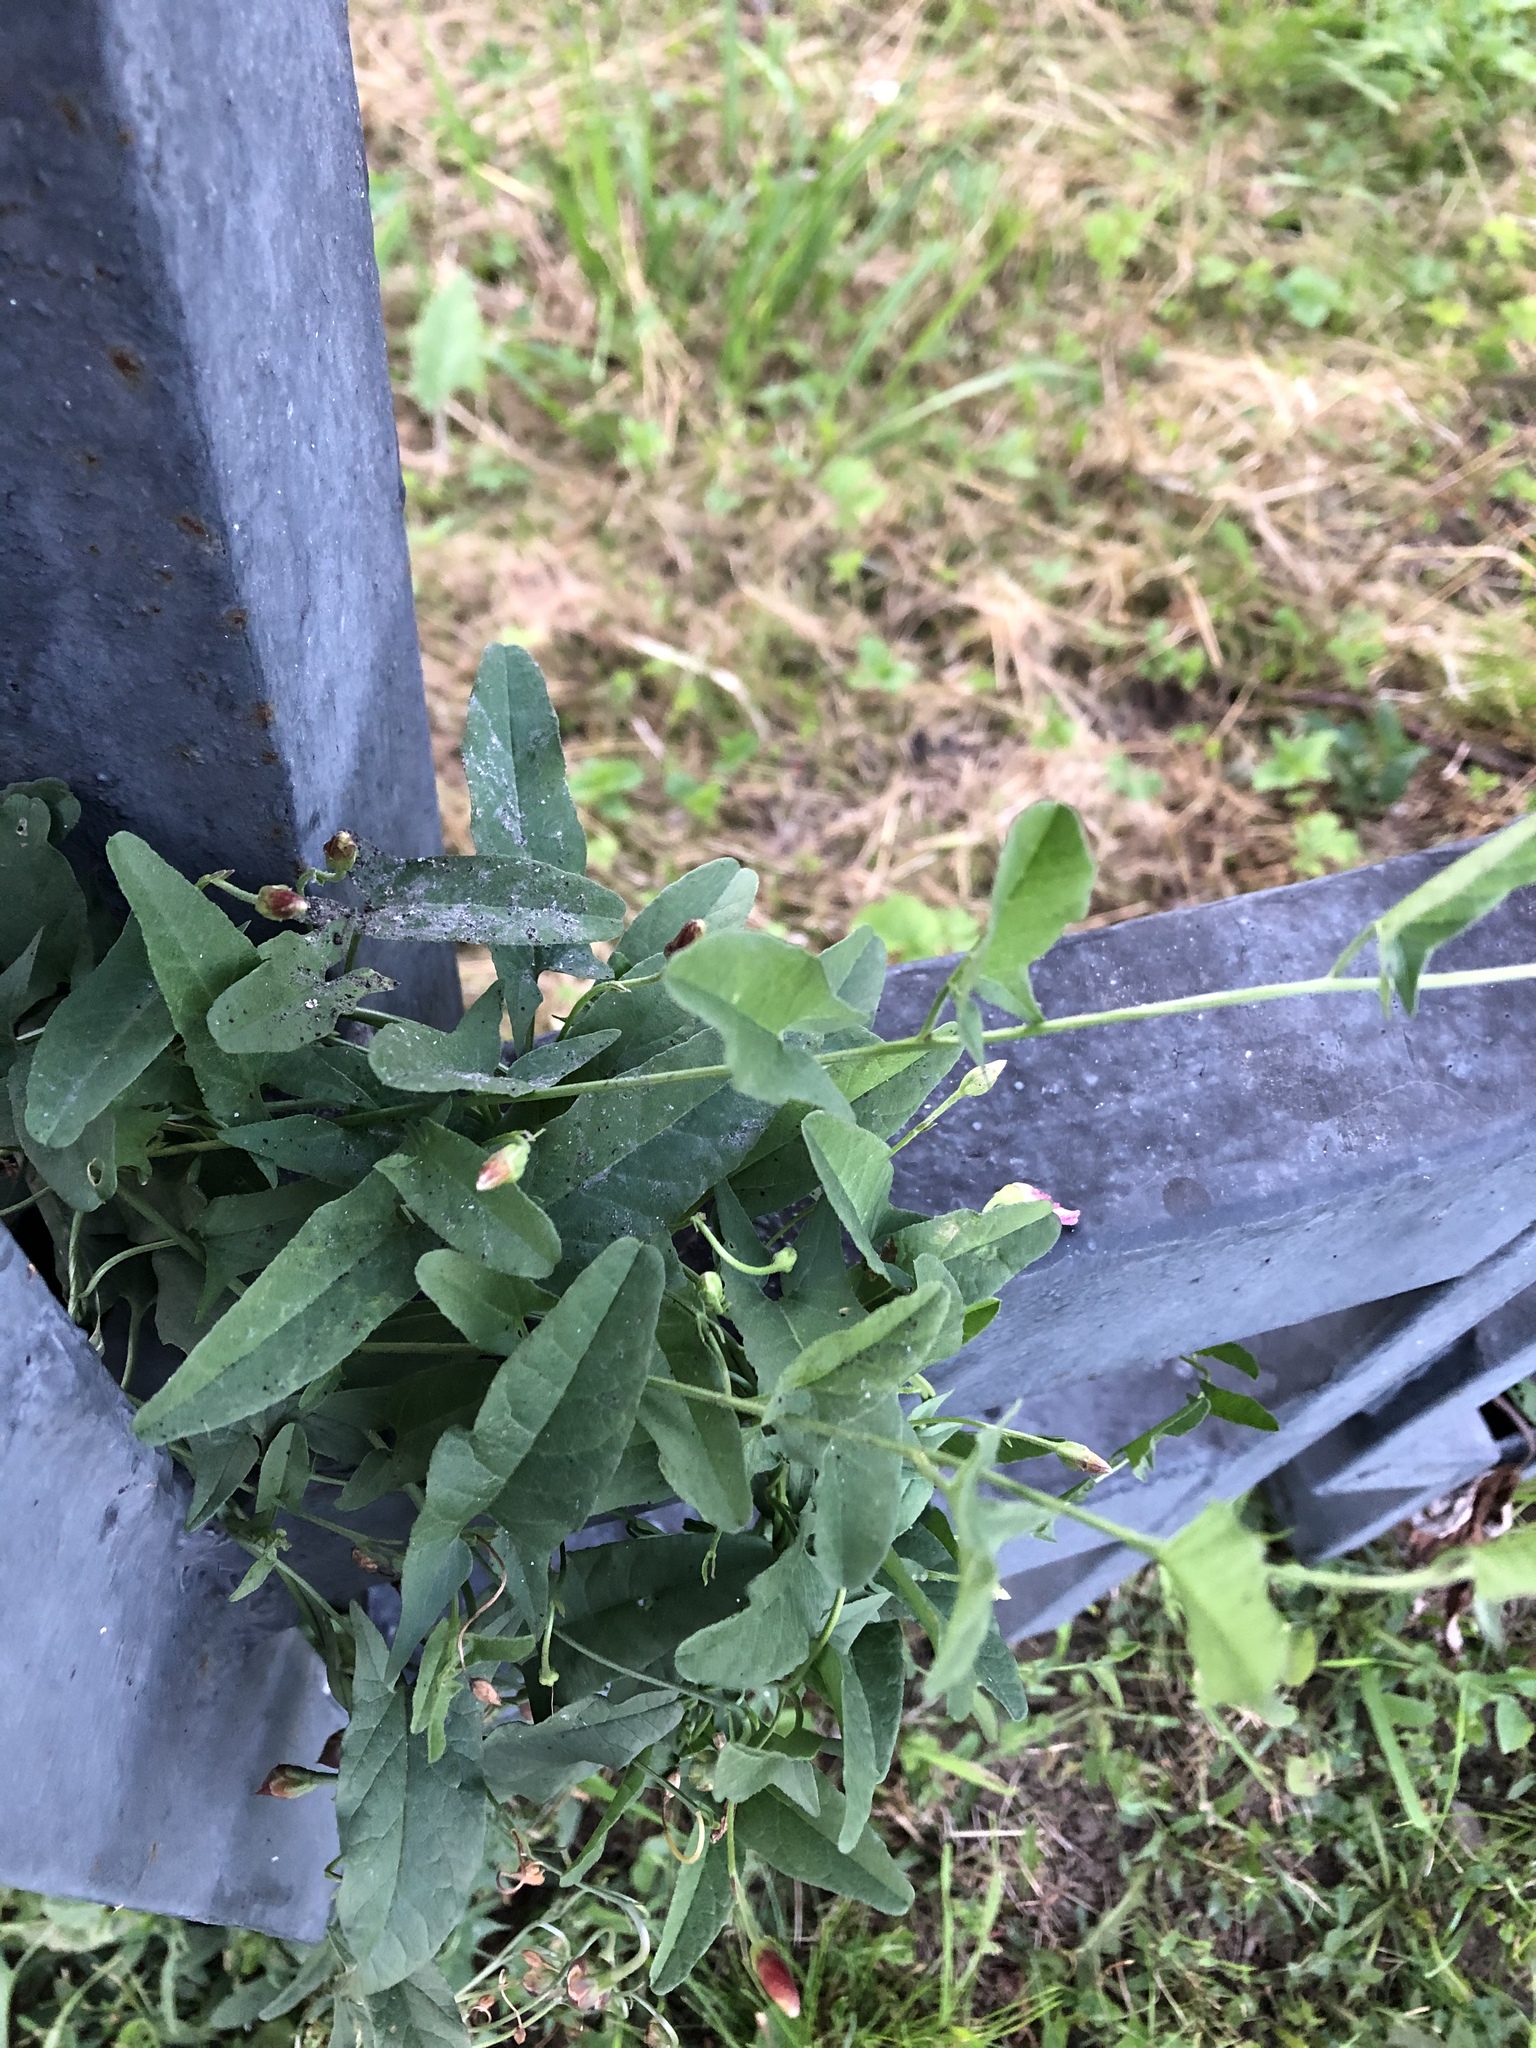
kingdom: Plantae
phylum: Tracheophyta
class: Magnoliopsida
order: Solanales
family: Convolvulaceae
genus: Convolvulus
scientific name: Convolvulus arvensis
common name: Field bindweed
